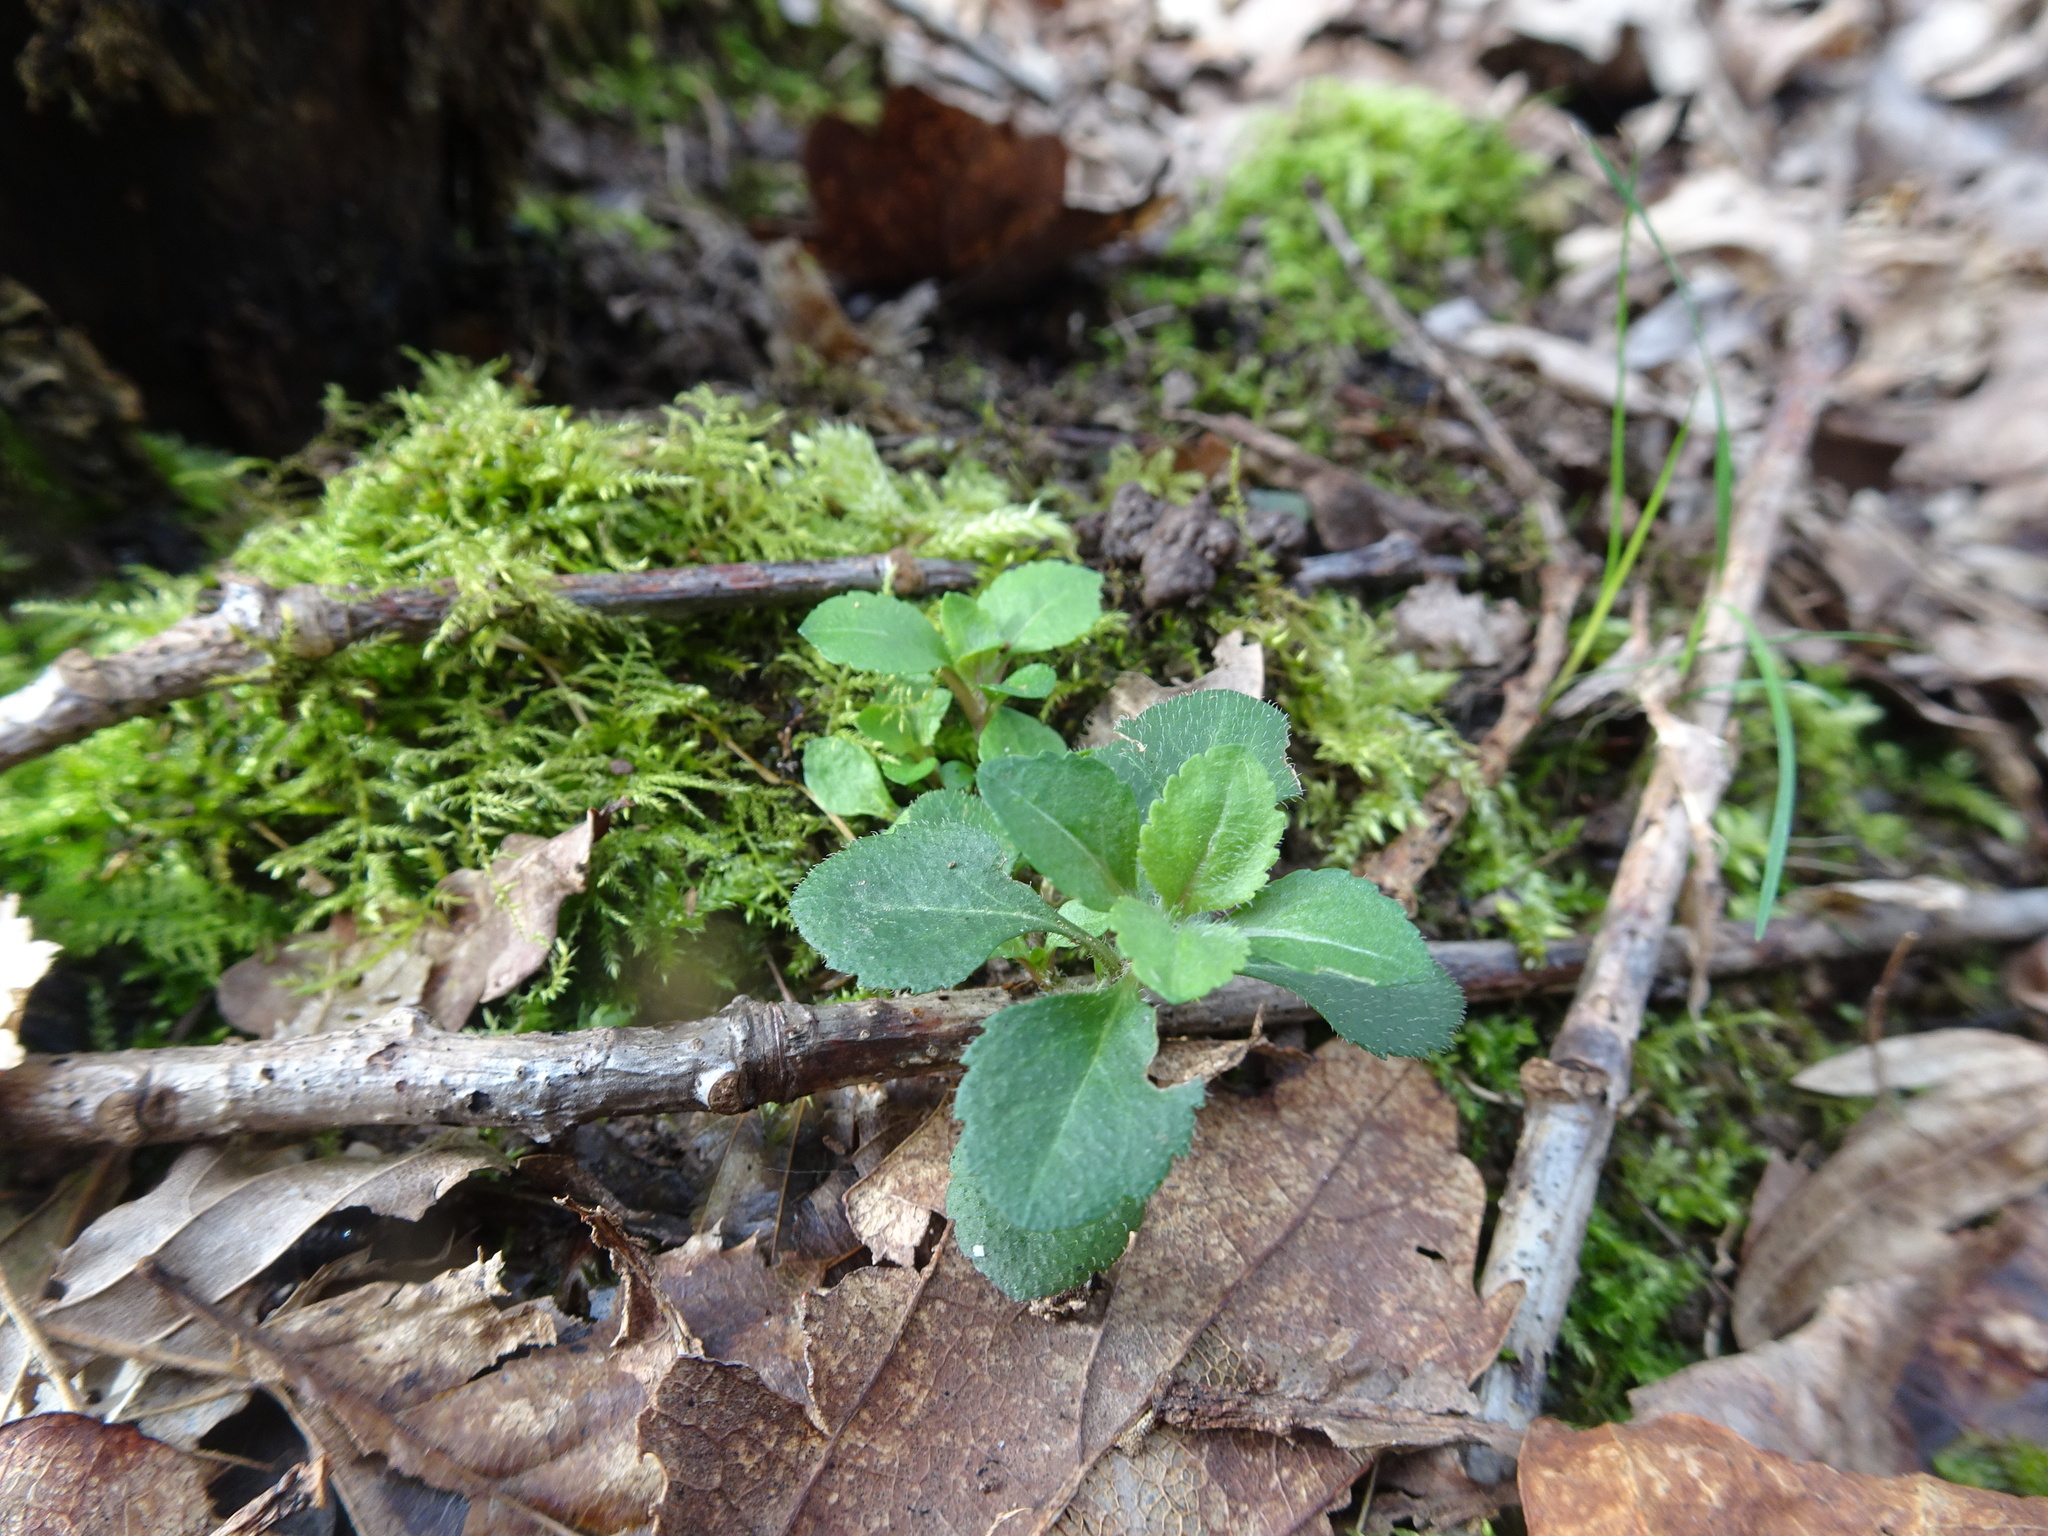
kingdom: Plantae
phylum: Tracheophyta
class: Magnoliopsida
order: Lamiales
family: Plantaginaceae
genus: Veronica
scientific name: Veronica officinalis
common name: Common speedwell
